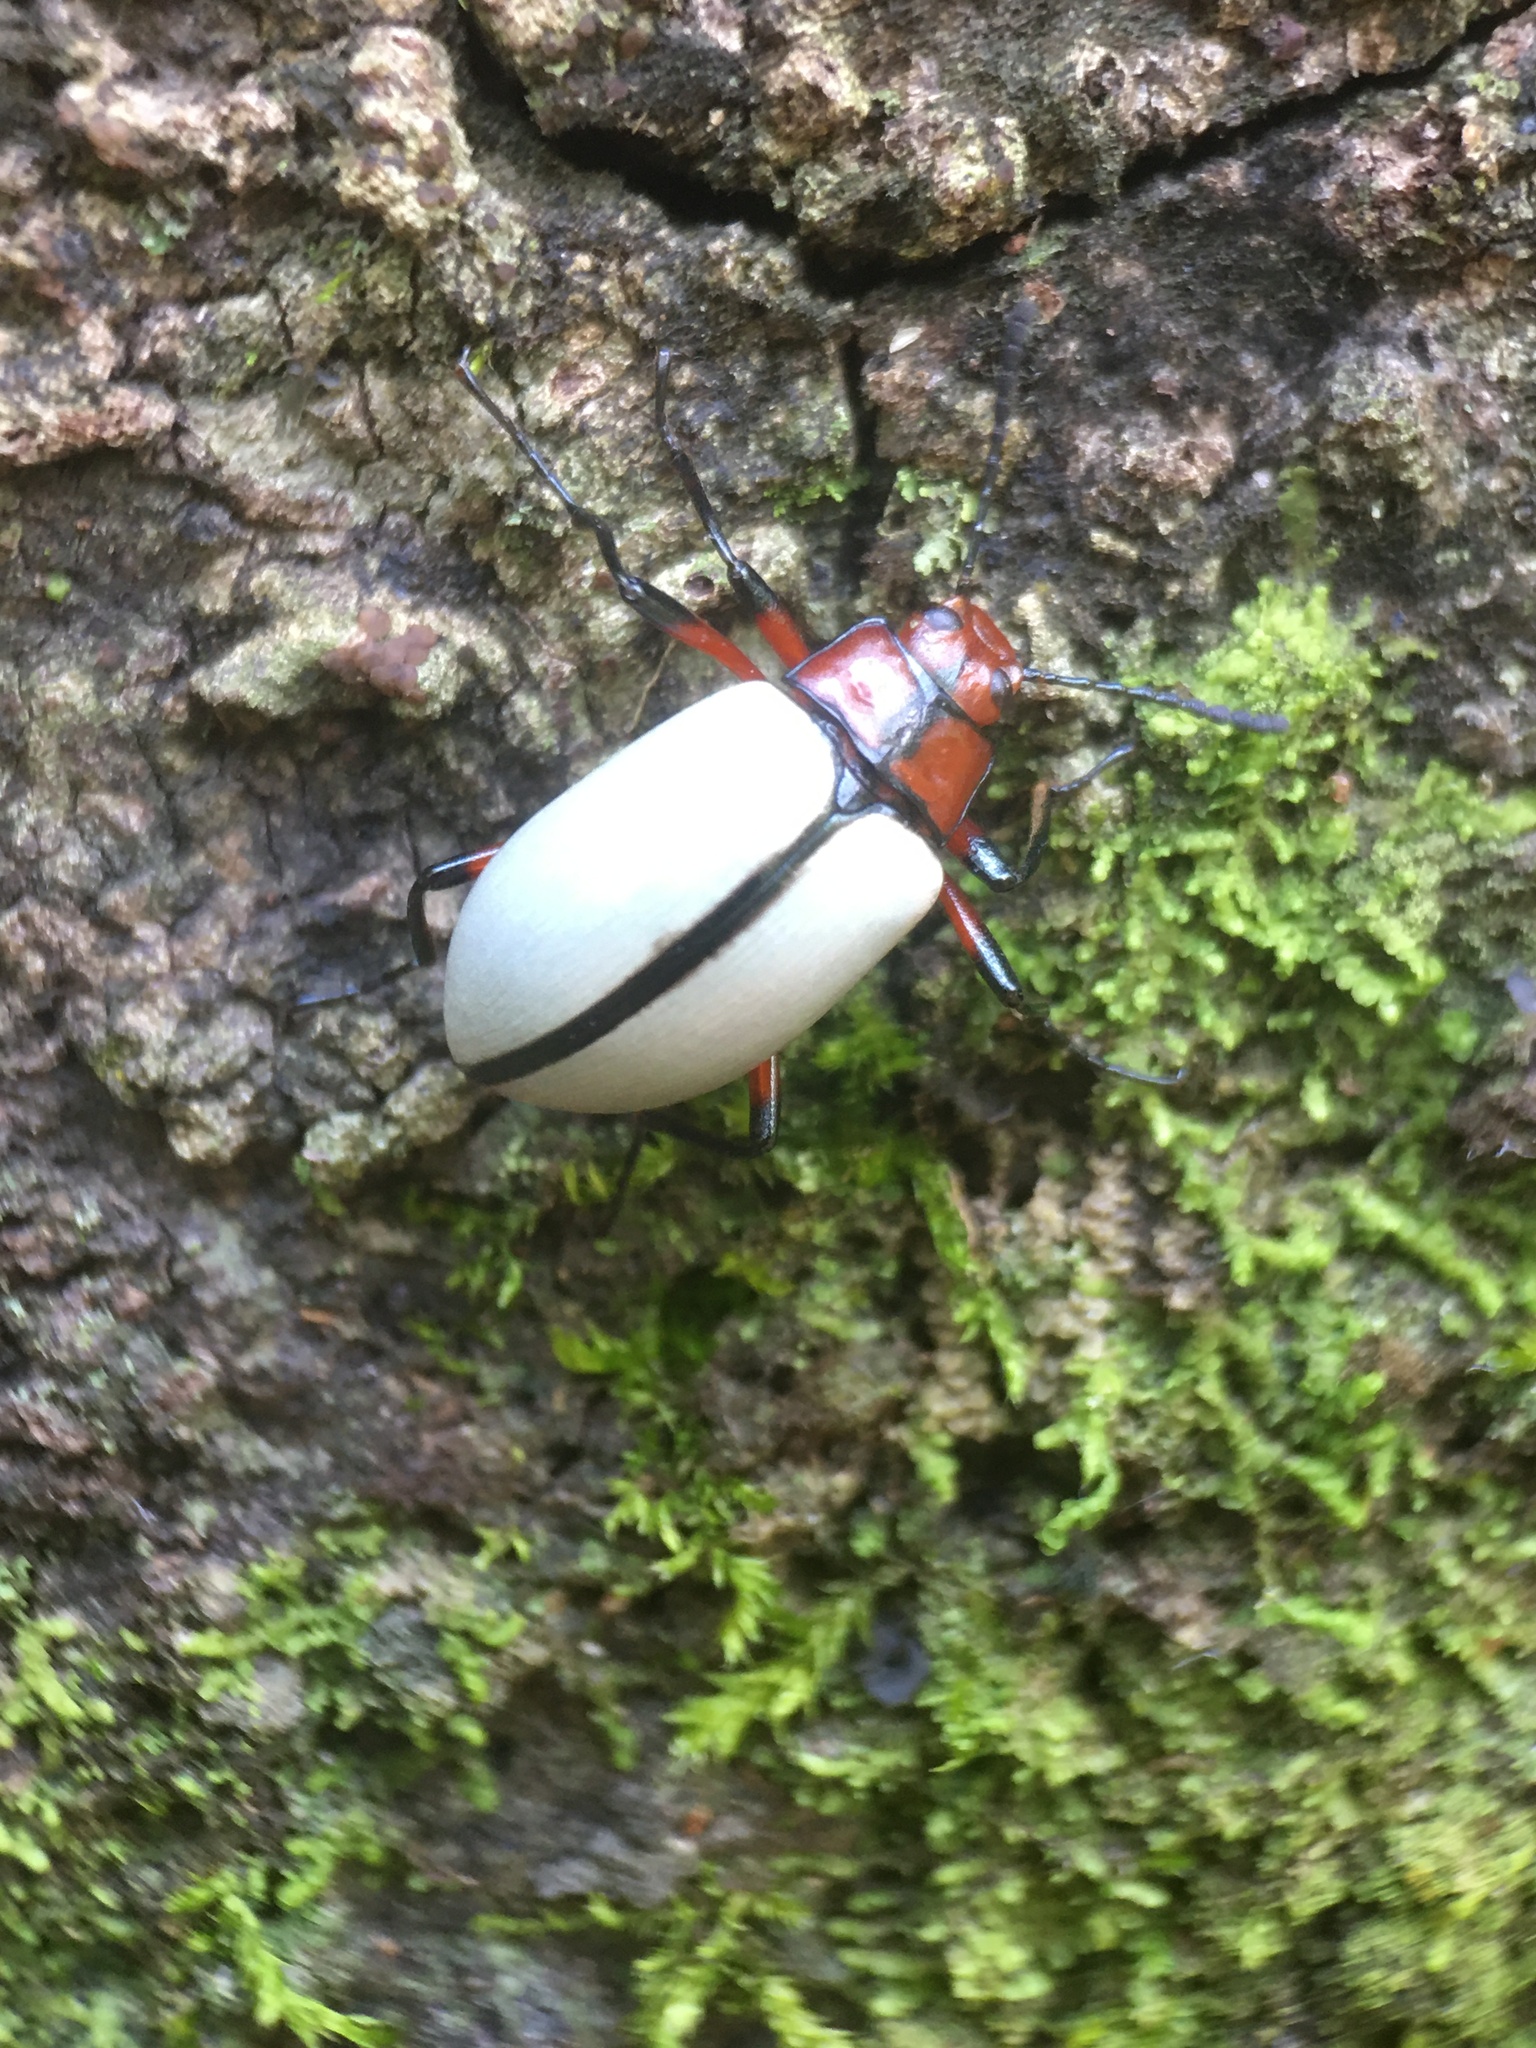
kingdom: Animalia
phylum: Arthropoda
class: Insecta
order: Coleoptera
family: Tenebrionidae
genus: Poecilesthus
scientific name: Poecilesthus
